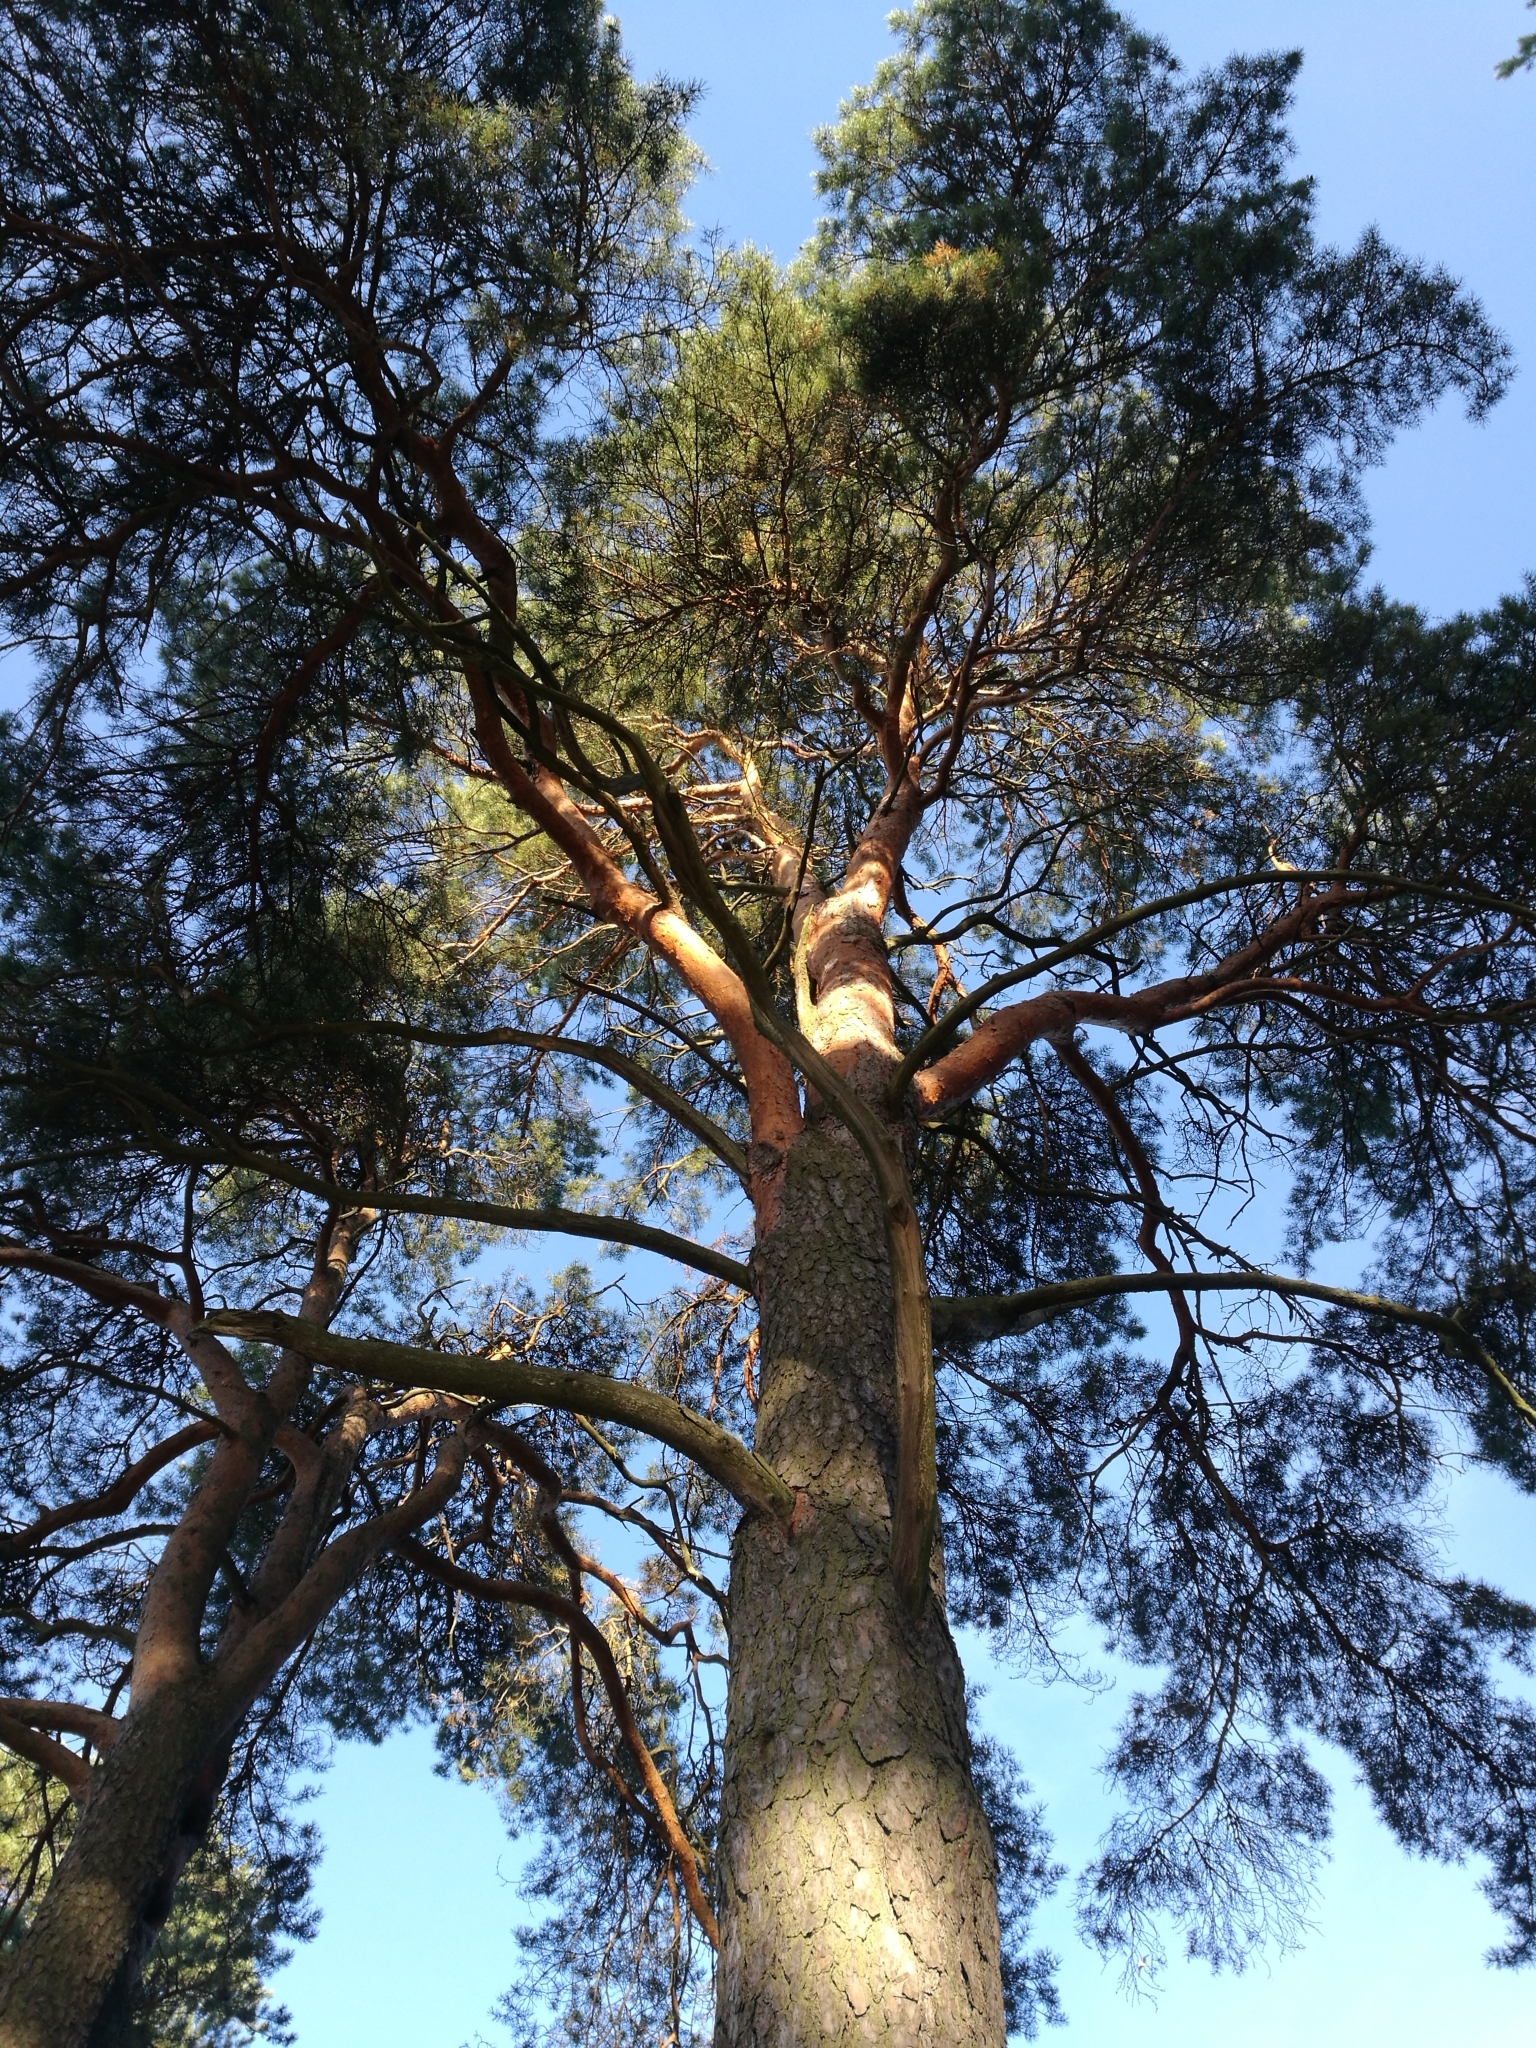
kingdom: Plantae
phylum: Tracheophyta
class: Pinopsida
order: Pinales
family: Pinaceae
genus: Pinus
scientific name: Pinus sylvestris
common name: Scots pine
